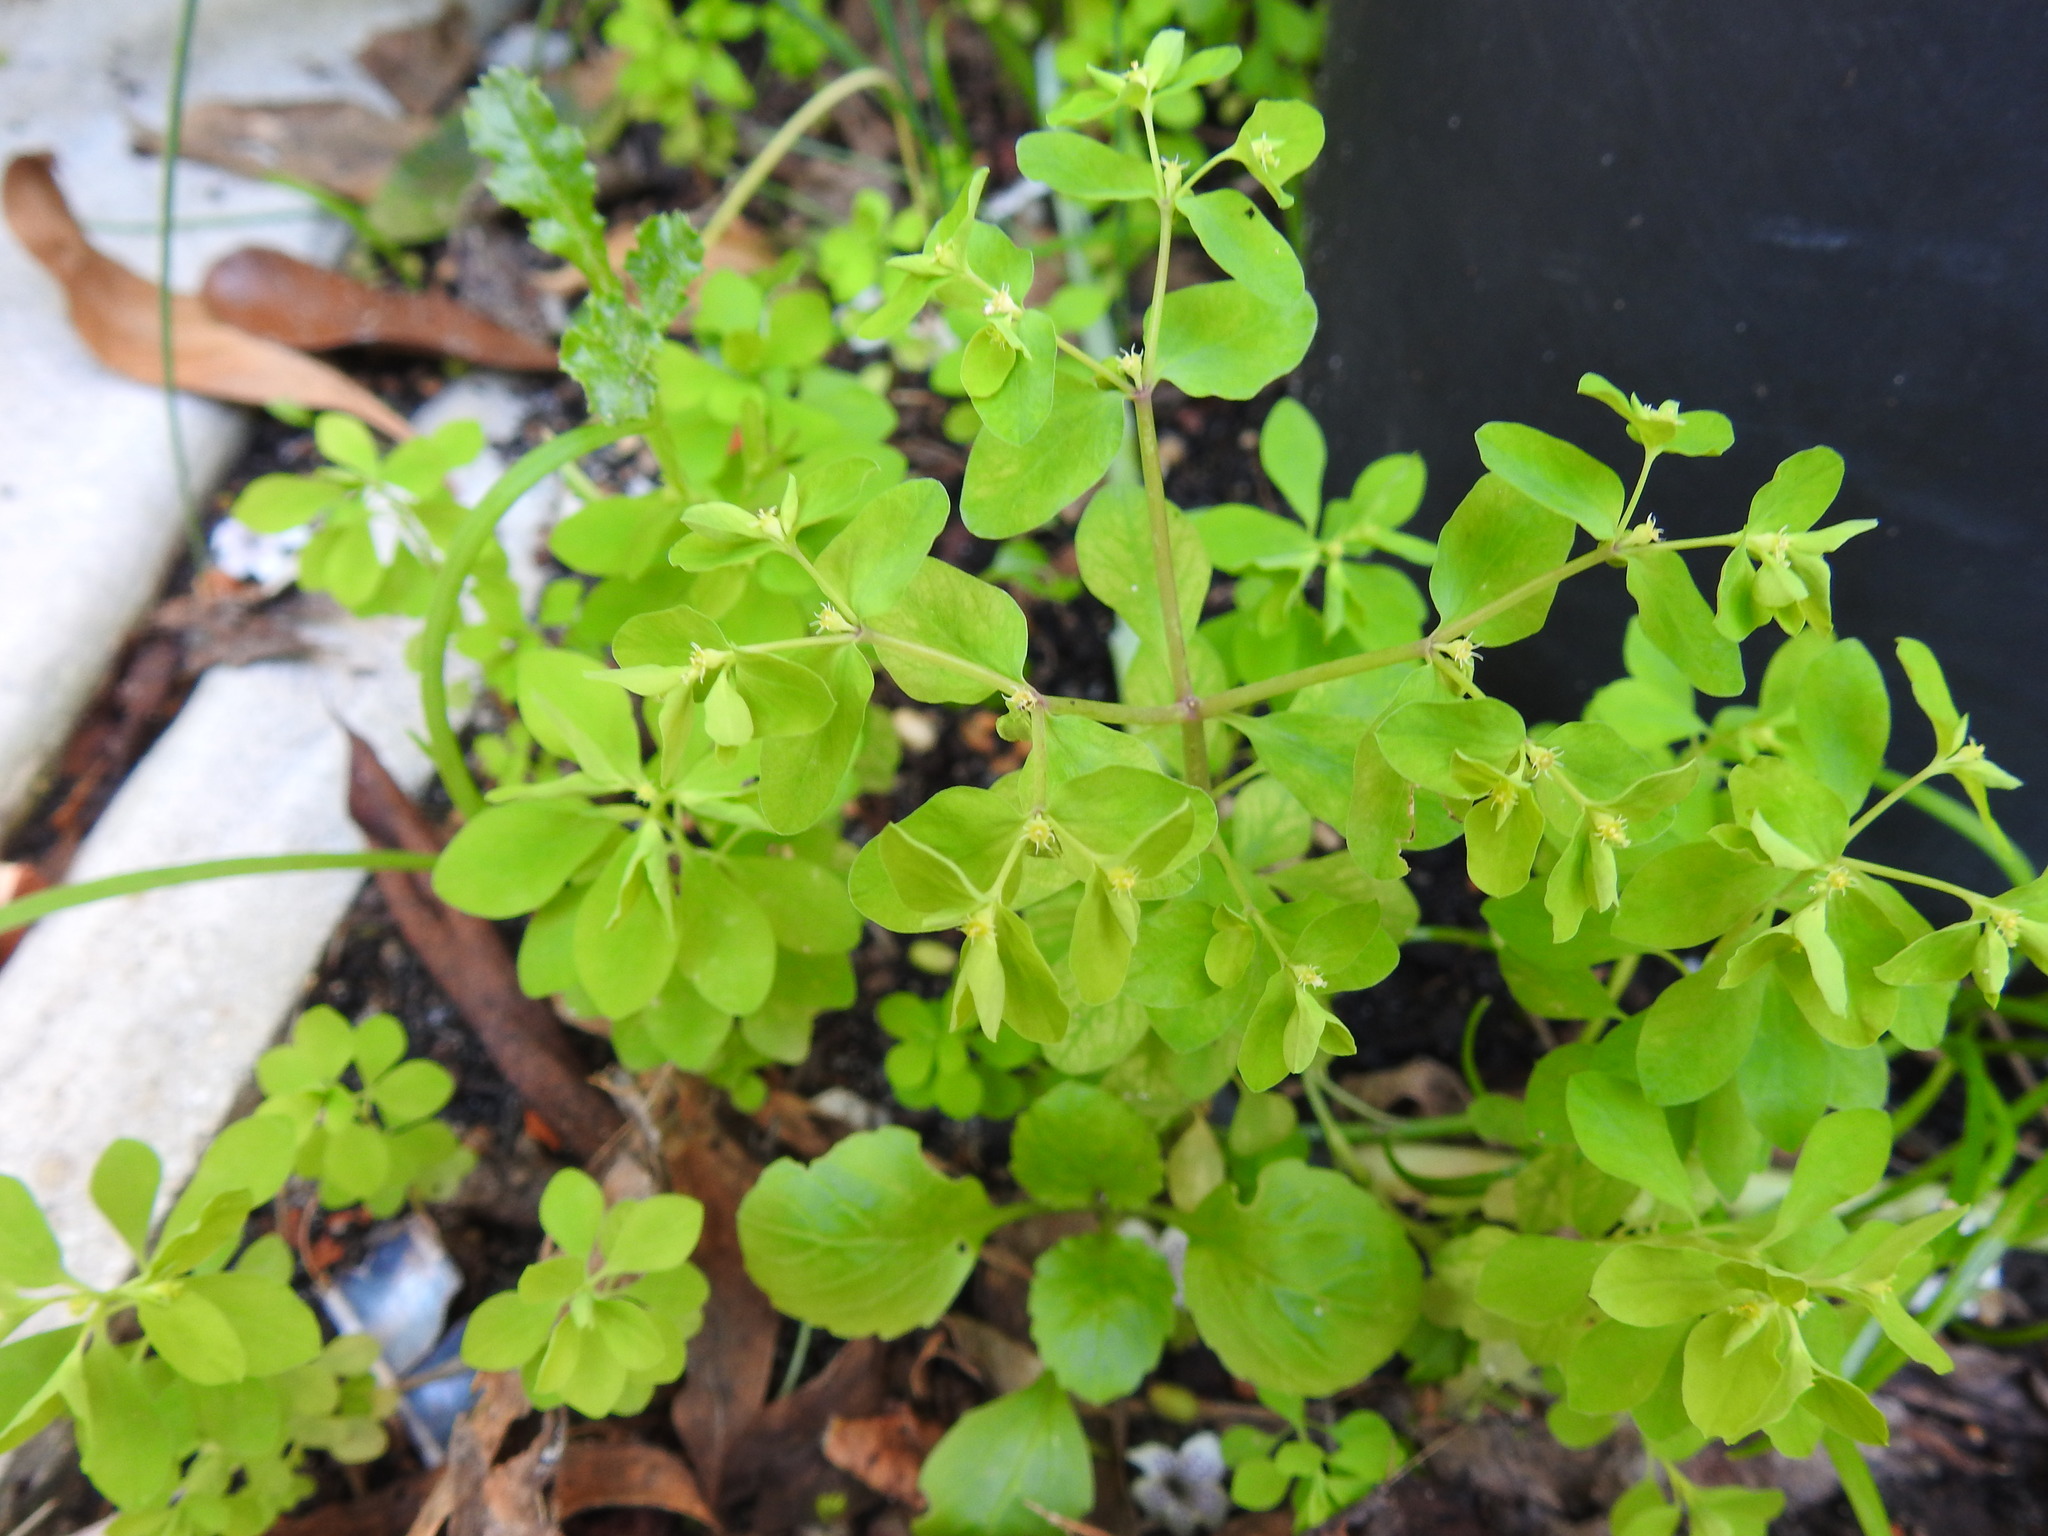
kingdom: Plantae
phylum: Tracheophyta
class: Magnoliopsida
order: Malpighiales
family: Euphorbiaceae
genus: Euphorbia
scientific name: Euphorbia peplus
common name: Petty spurge
